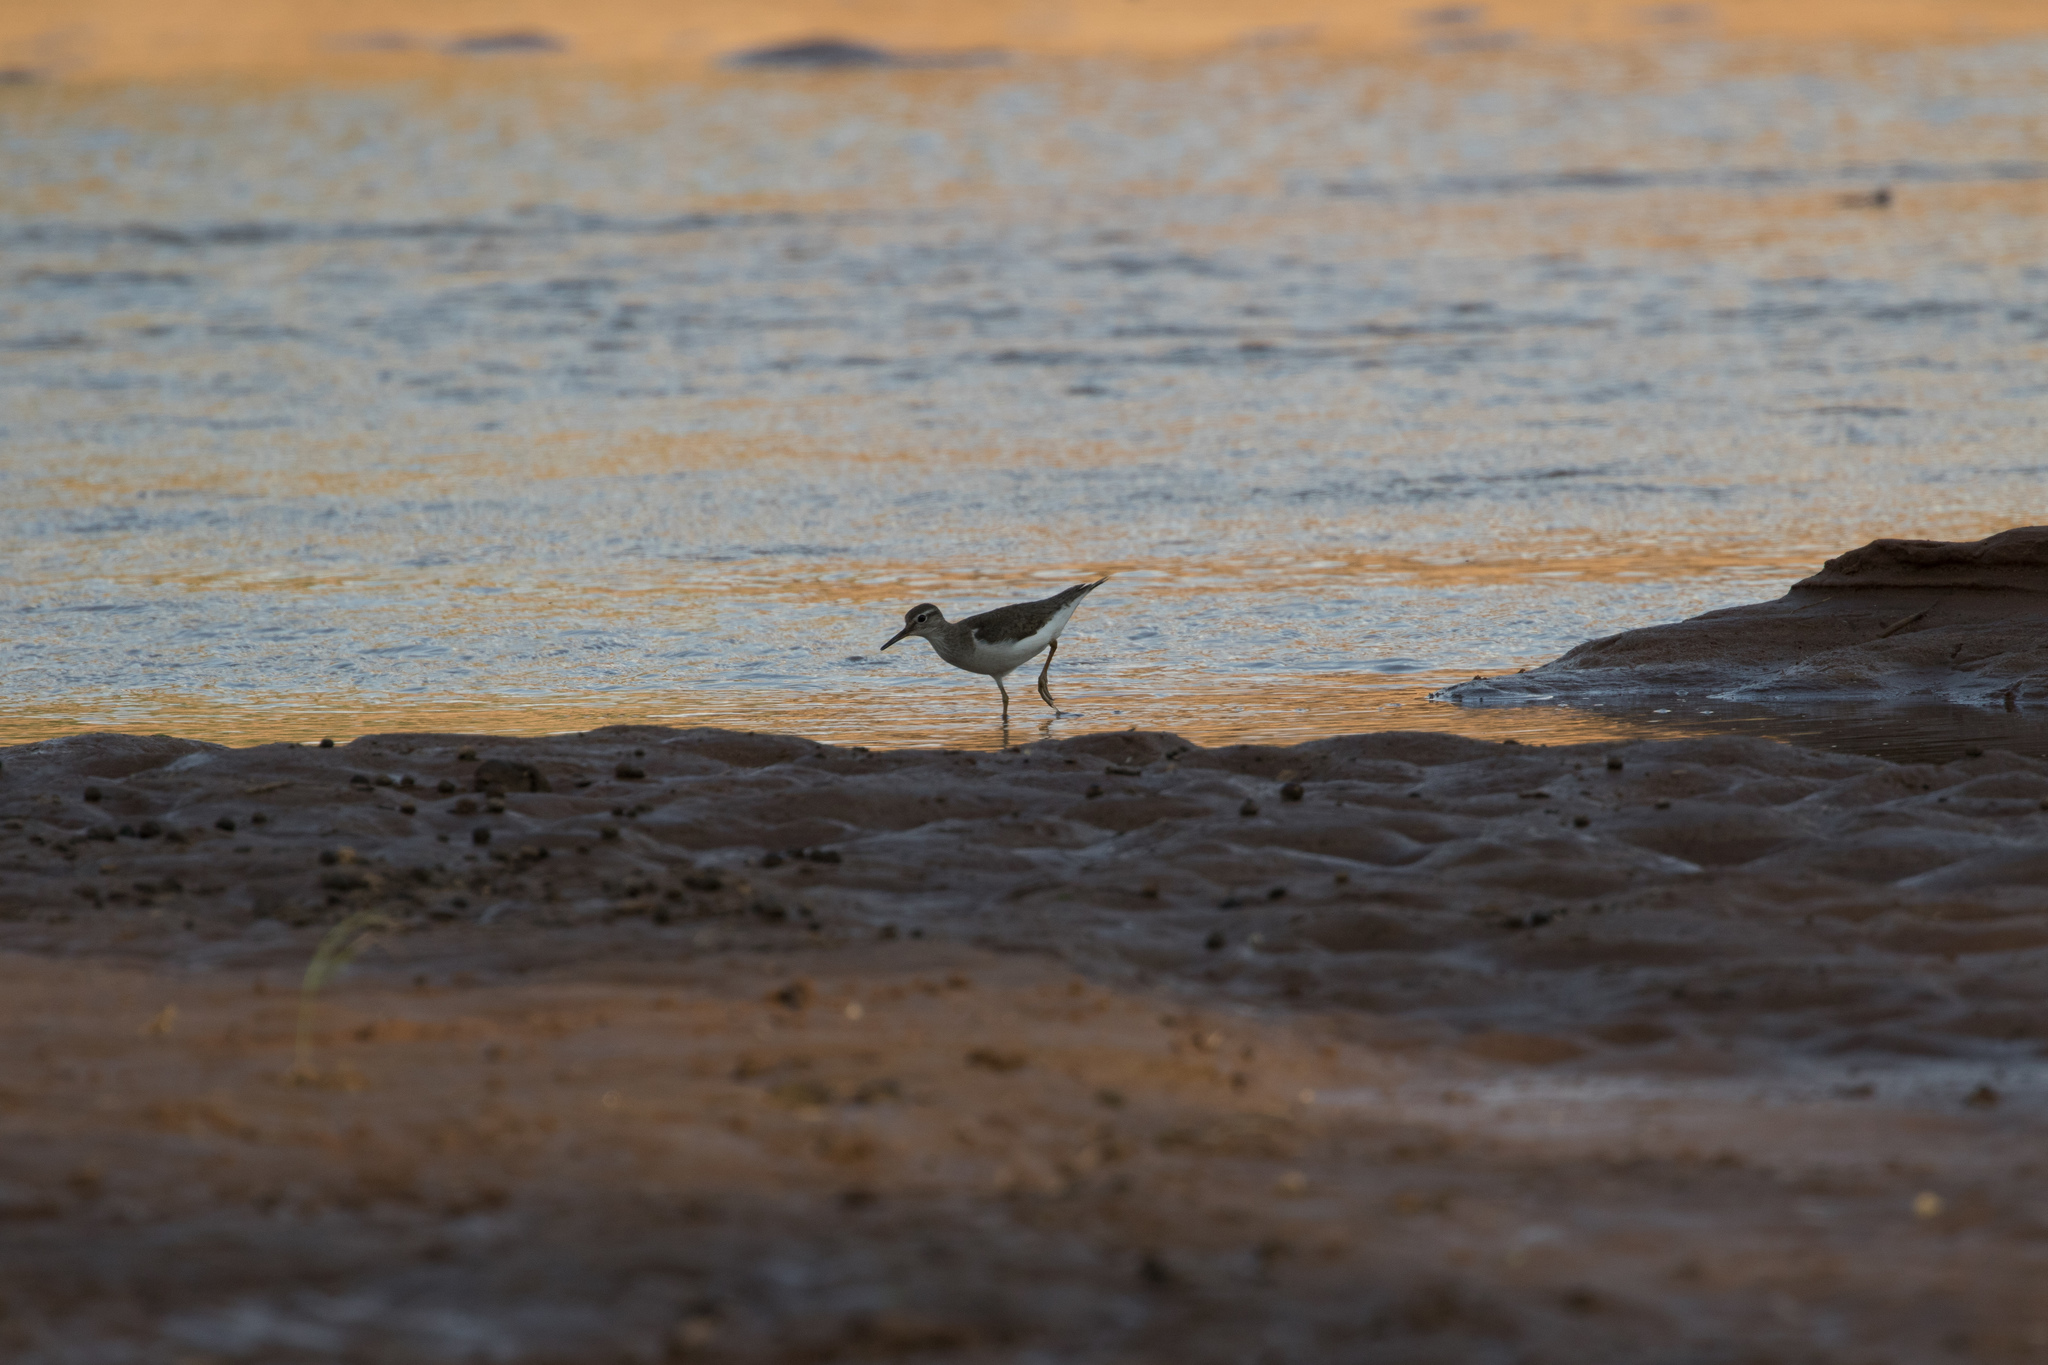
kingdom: Animalia
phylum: Chordata
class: Aves
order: Charadriiformes
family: Scolopacidae
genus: Actitis
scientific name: Actitis hypoleucos
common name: Common sandpiper
